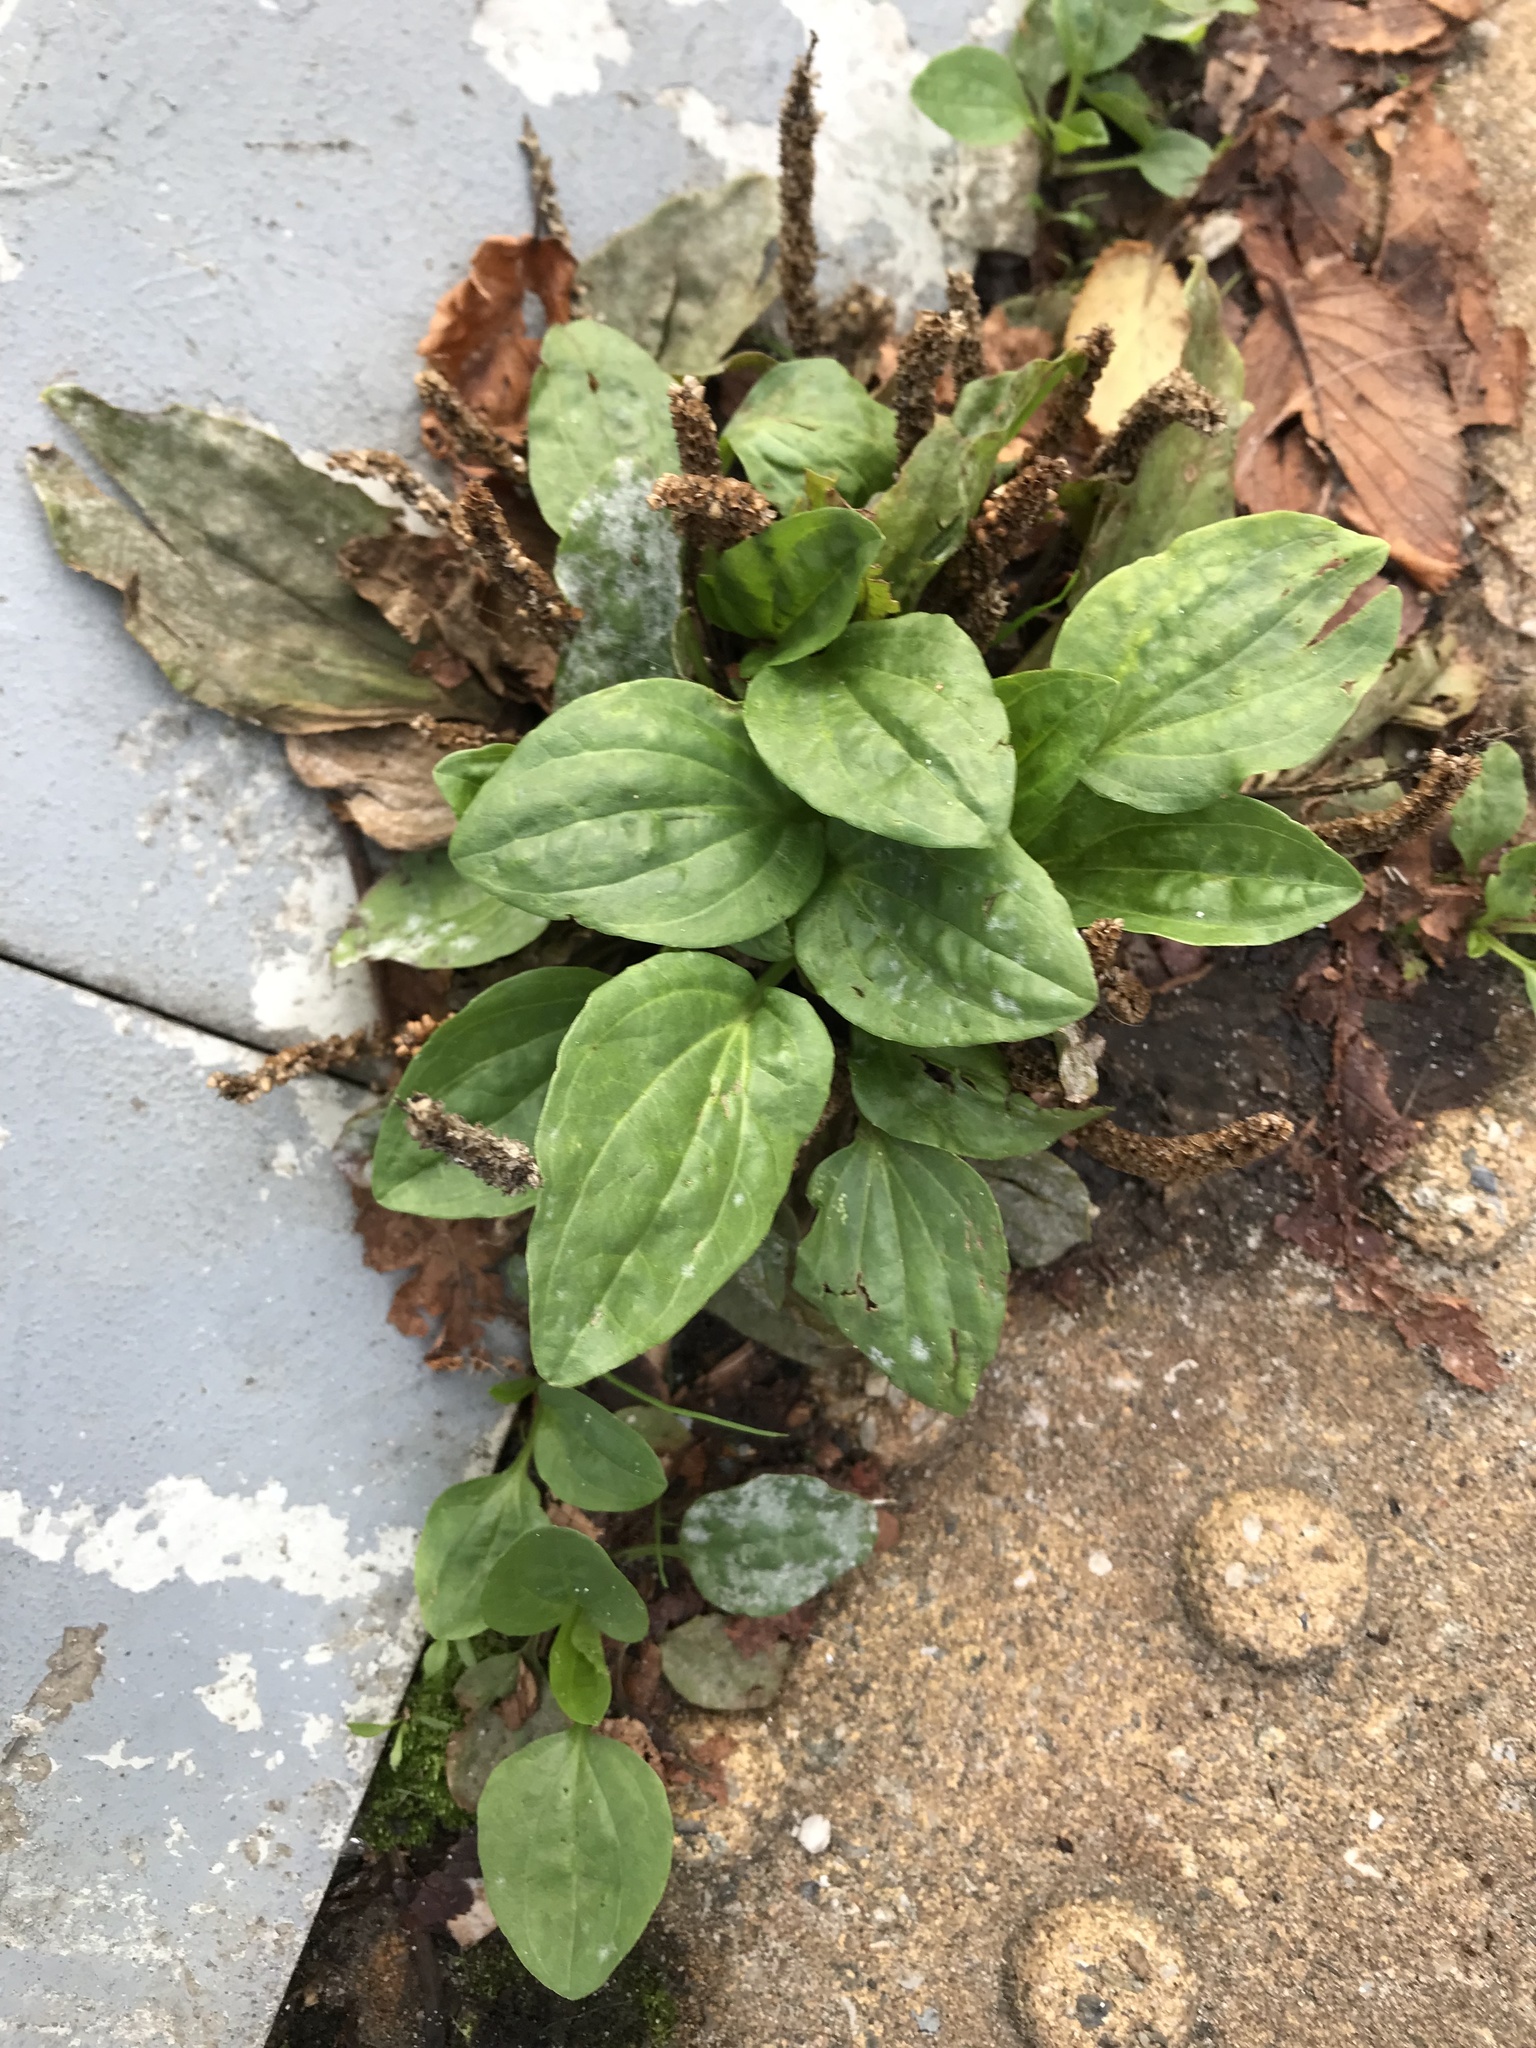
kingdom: Plantae
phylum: Tracheophyta
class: Magnoliopsida
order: Lamiales
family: Plantaginaceae
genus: Plantago
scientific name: Plantago major
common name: Common plantain
